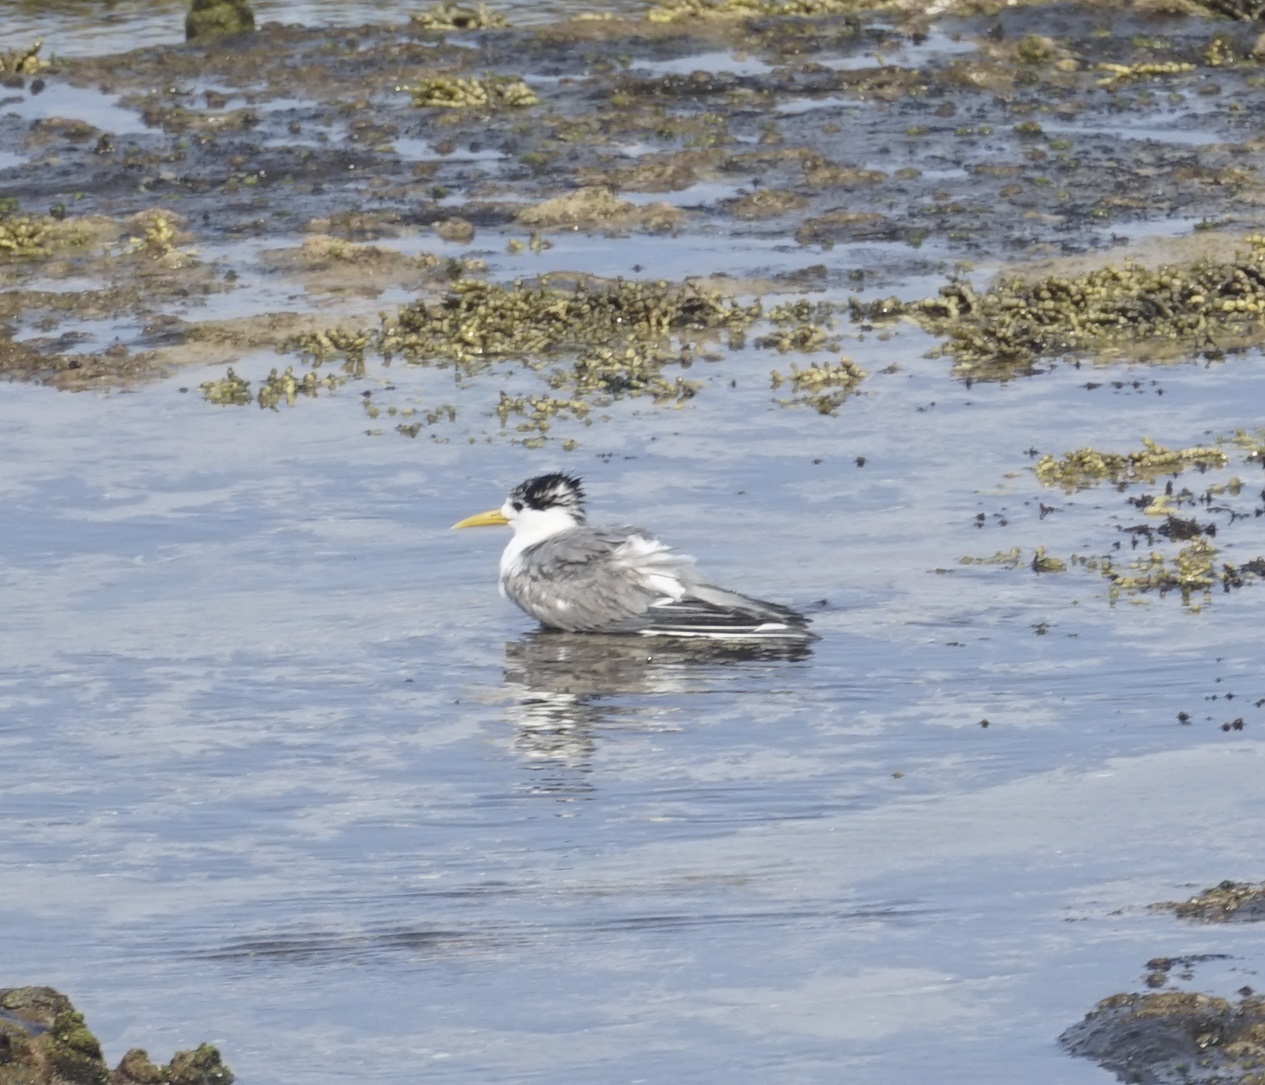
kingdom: Animalia
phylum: Chordata
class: Aves
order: Charadriiformes
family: Laridae
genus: Thalasseus
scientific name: Thalasseus bergii
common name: Greater crested tern
